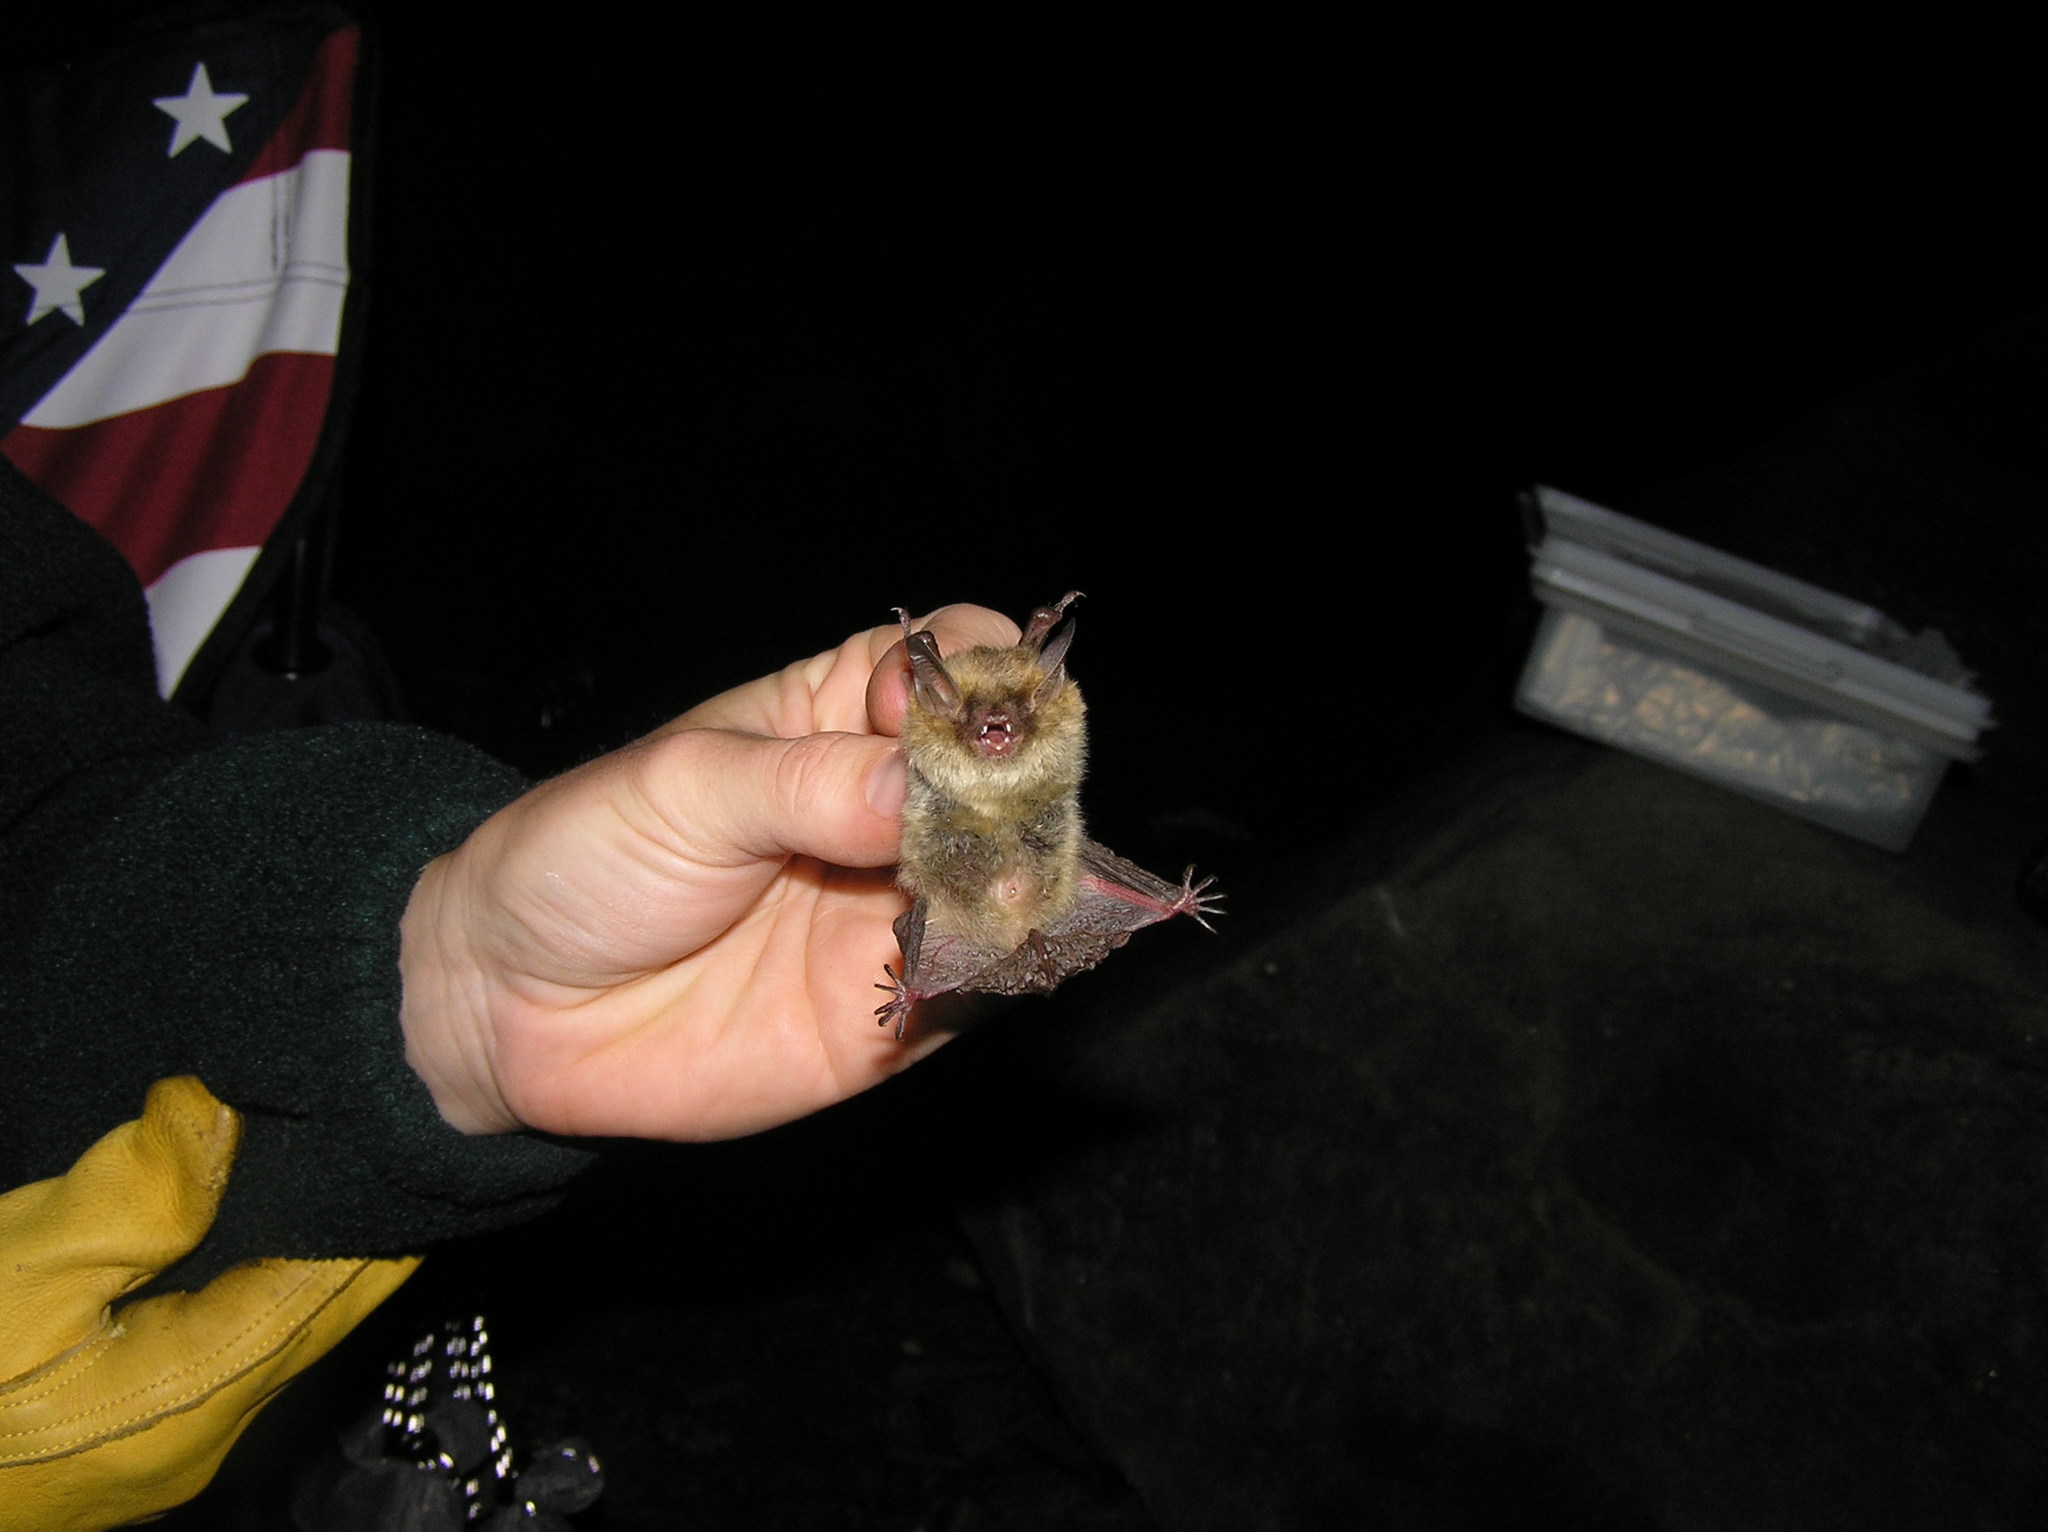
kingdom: Animalia
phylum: Chordata
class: Mammalia
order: Chiroptera
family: Vespertilionidae
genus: Myotis
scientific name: Myotis septentrionalis
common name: Northern myotis
